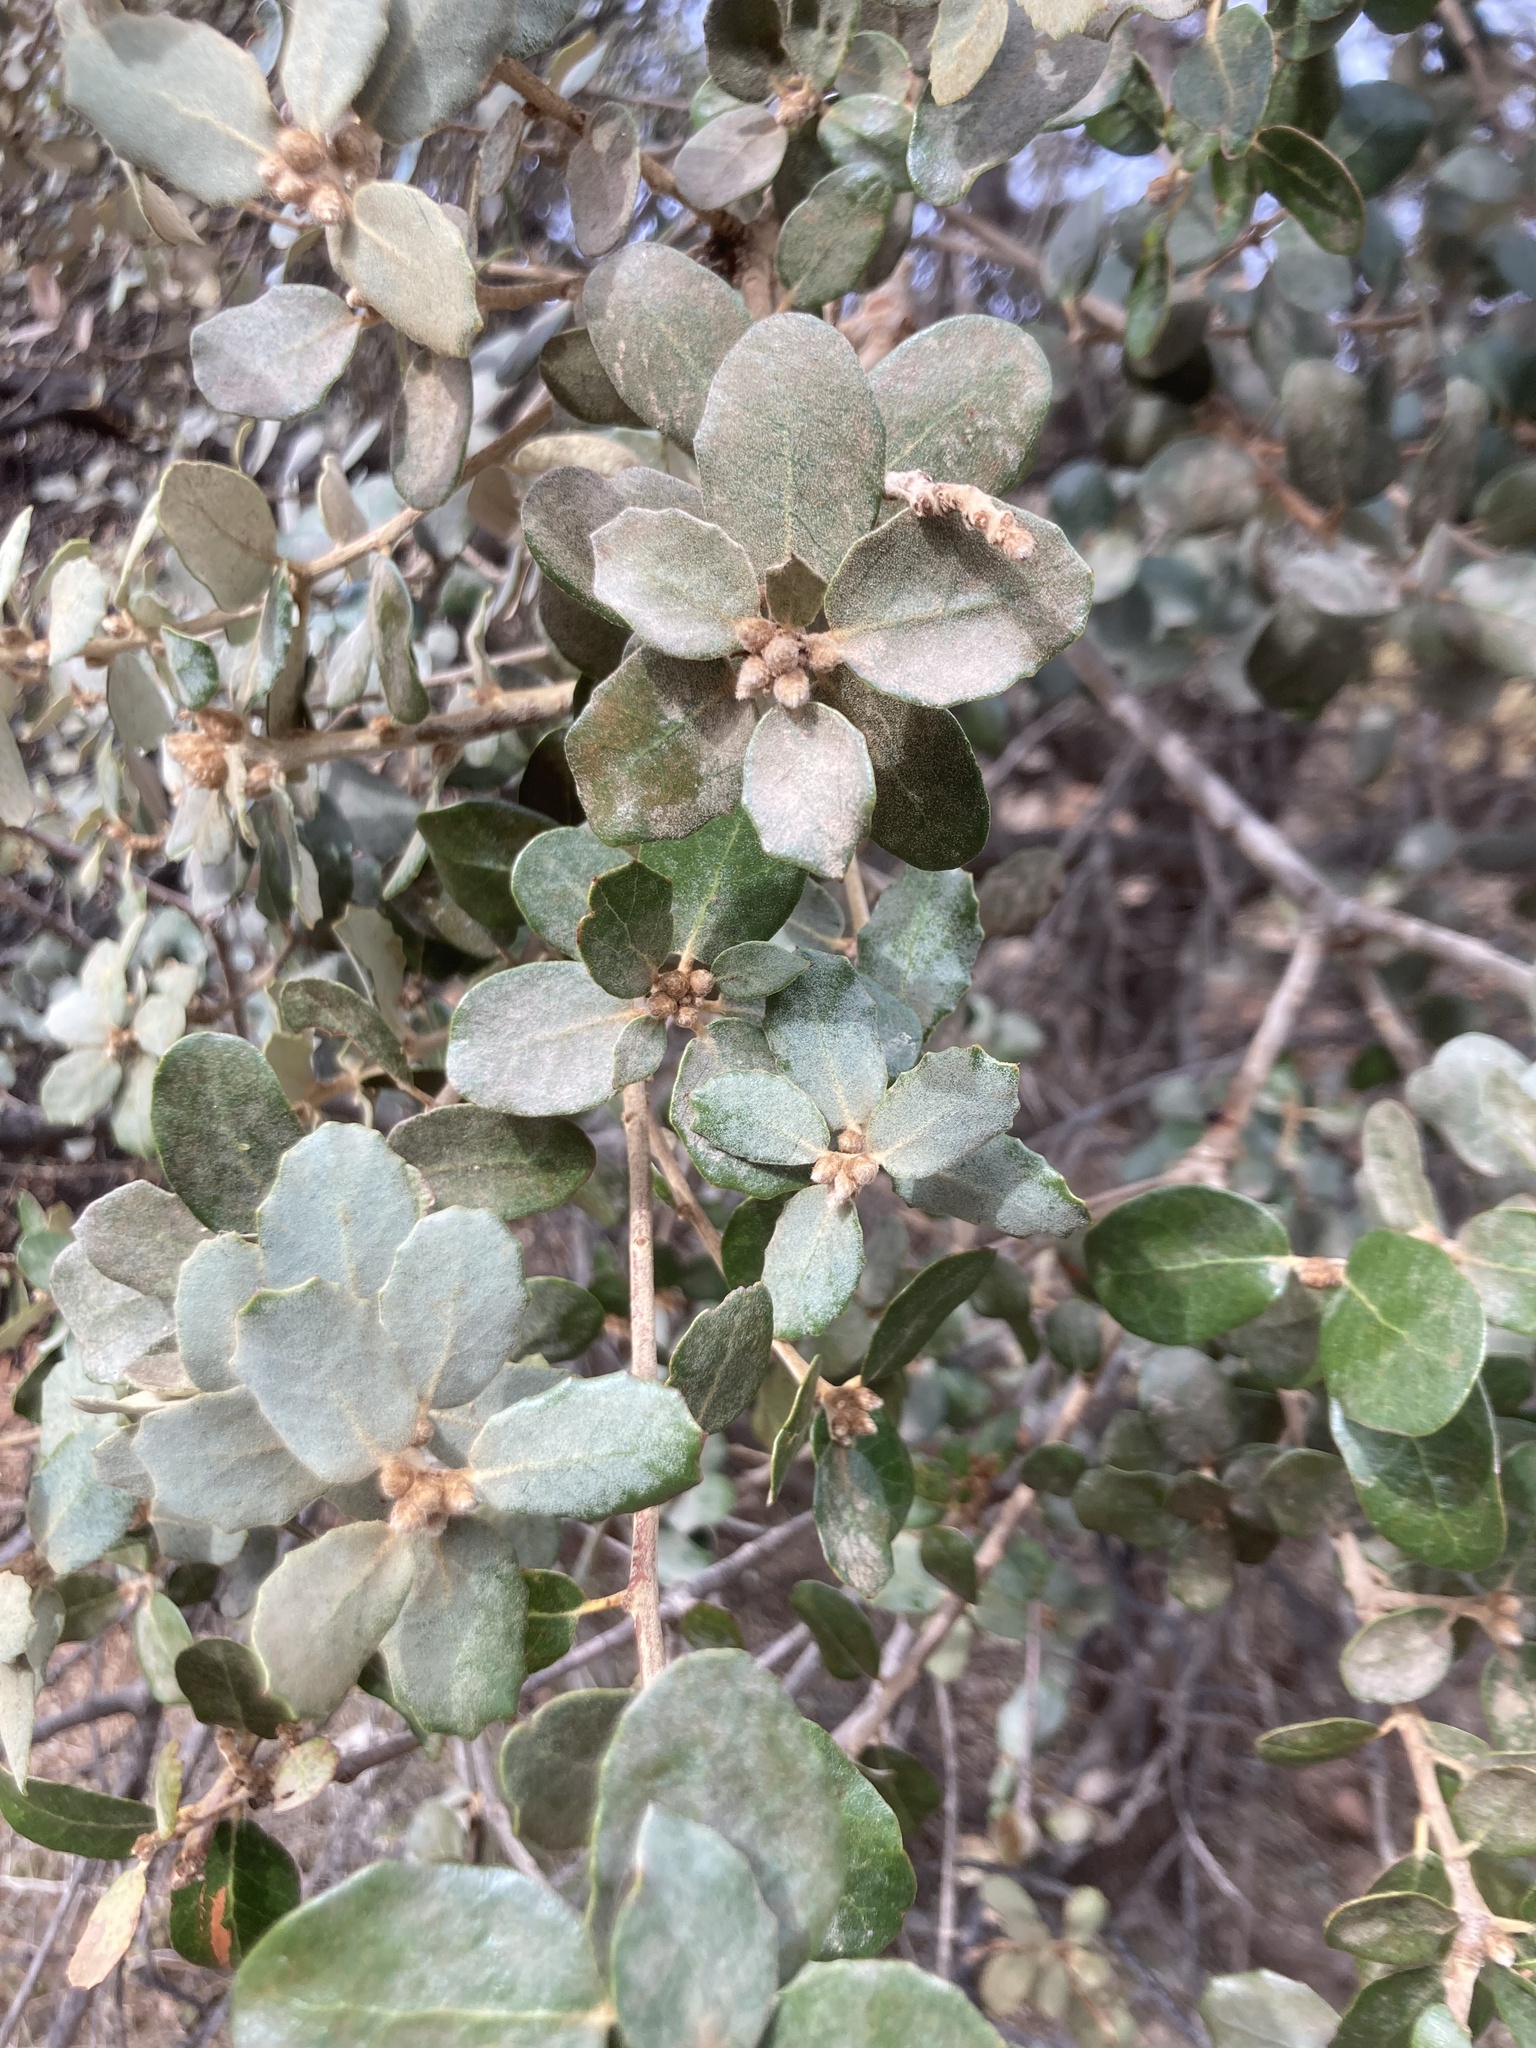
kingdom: Plantae
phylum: Tracheophyta
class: Magnoliopsida
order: Fagales
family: Fagaceae
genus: Quercus
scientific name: Quercus rotundifolia
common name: Holm oak
